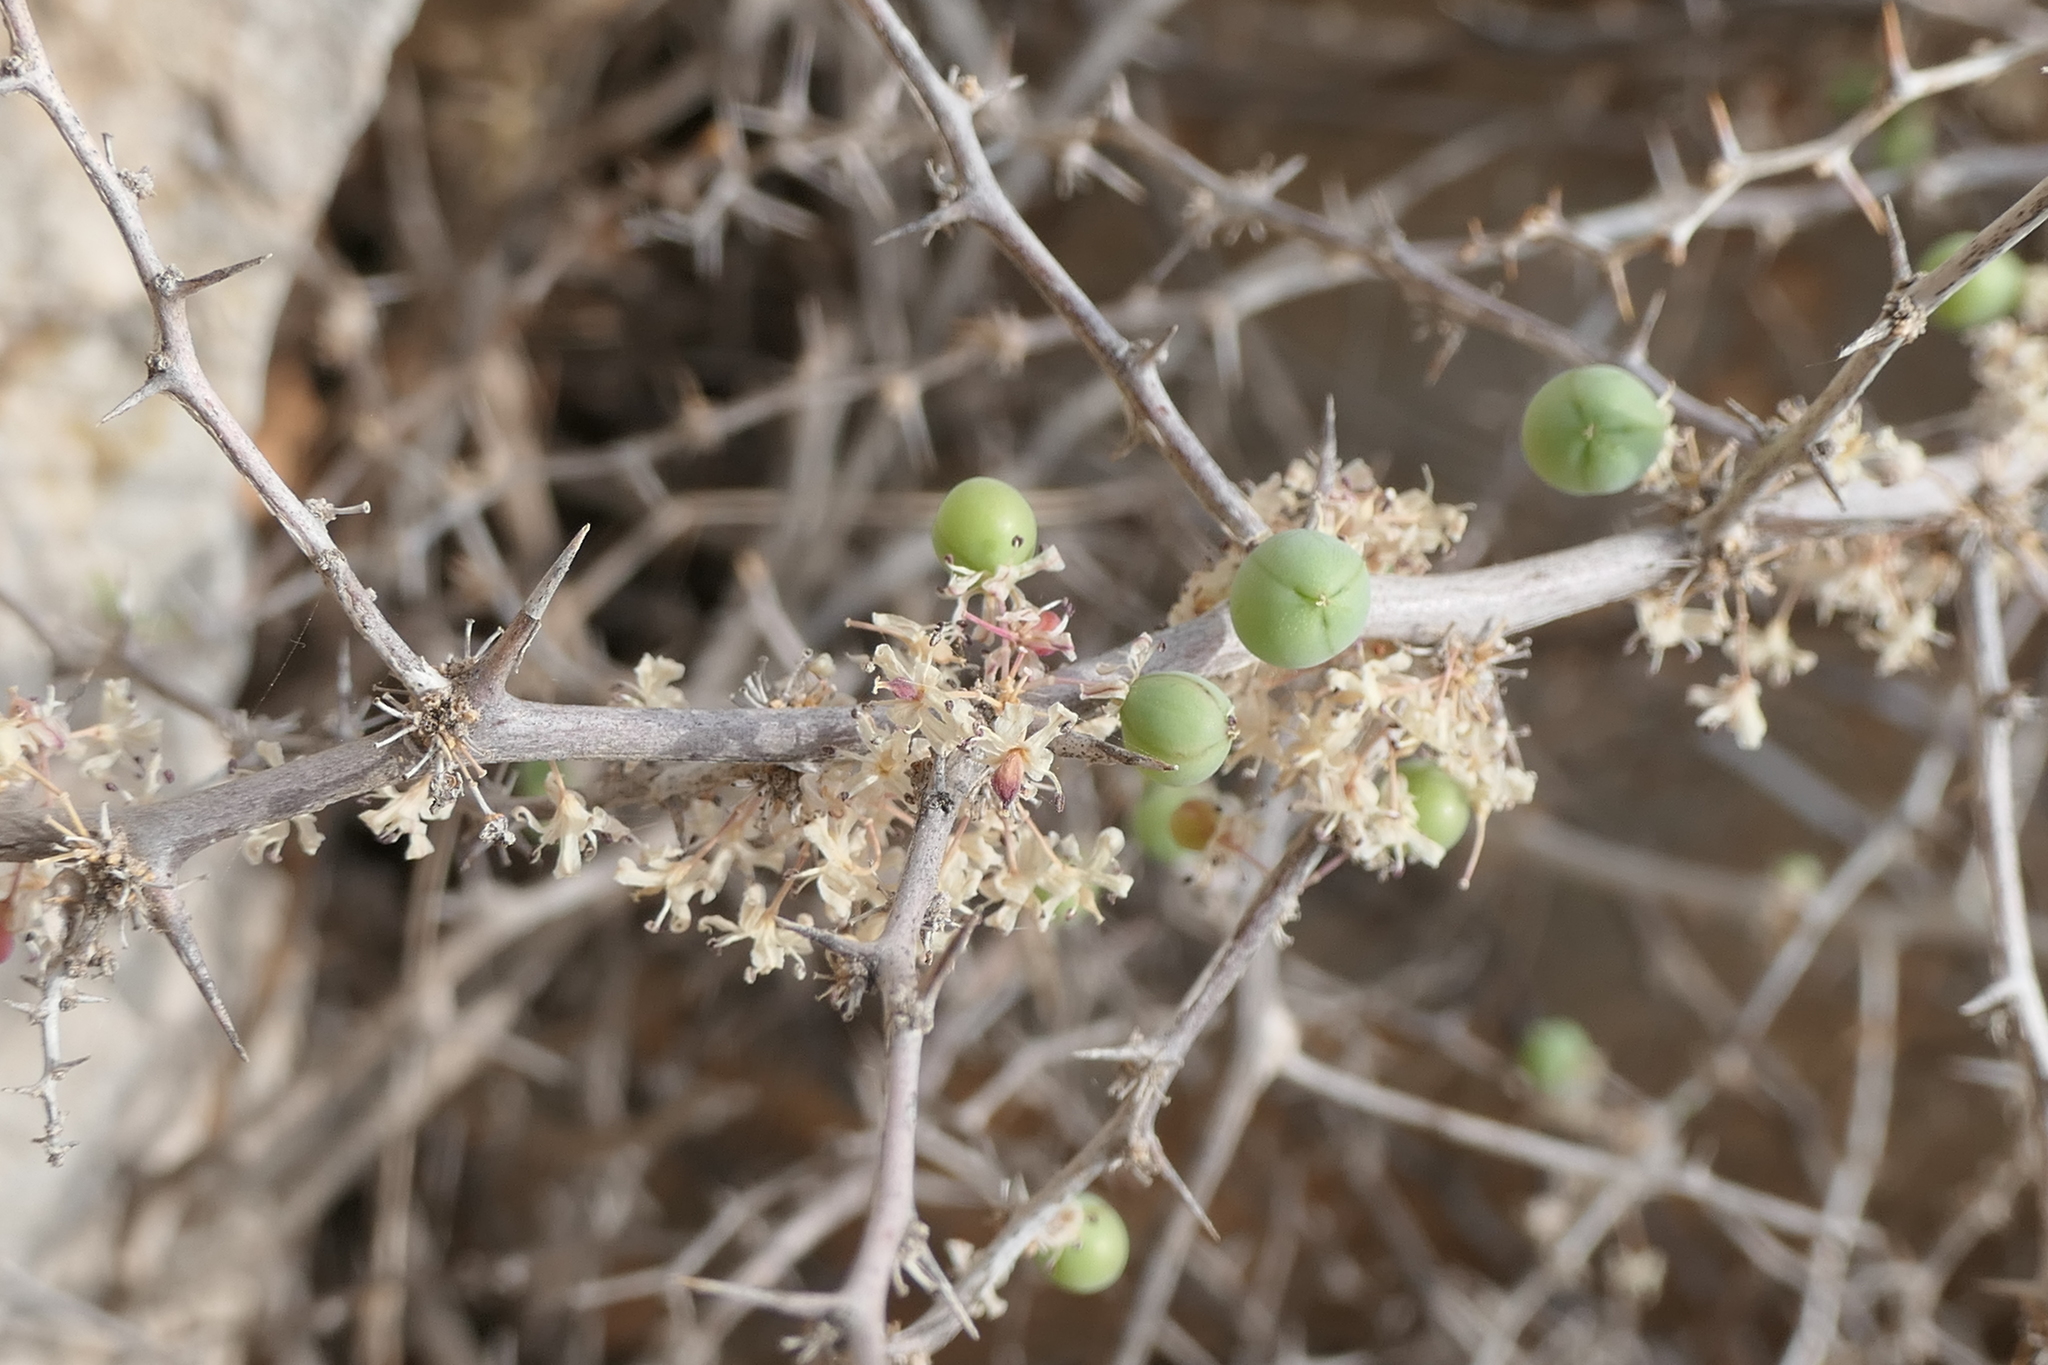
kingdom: Plantae
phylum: Tracheophyta
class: Liliopsida
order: Asparagales
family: Asparagaceae
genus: Asparagus
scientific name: Asparagus albus
